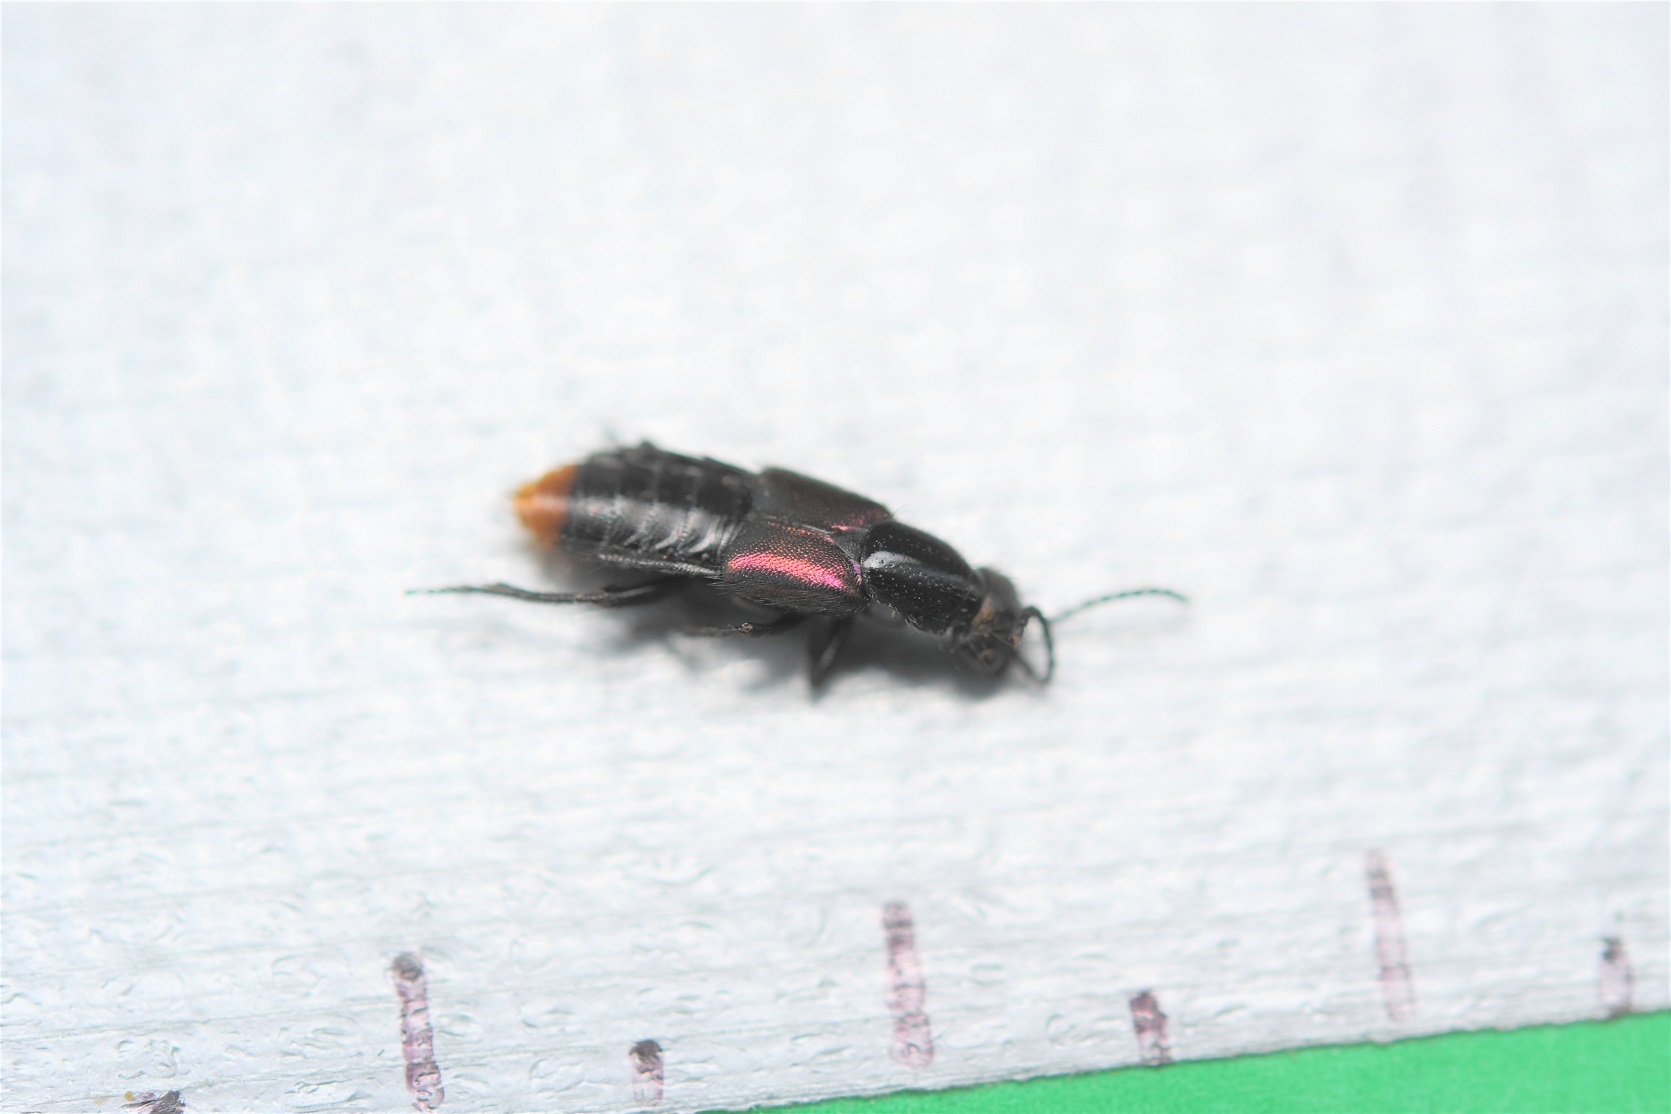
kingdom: Animalia
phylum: Arthropoda
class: Insecta
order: Coleoptera
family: Staphylinidae
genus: Styngetus
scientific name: Styngetus deyrollei
